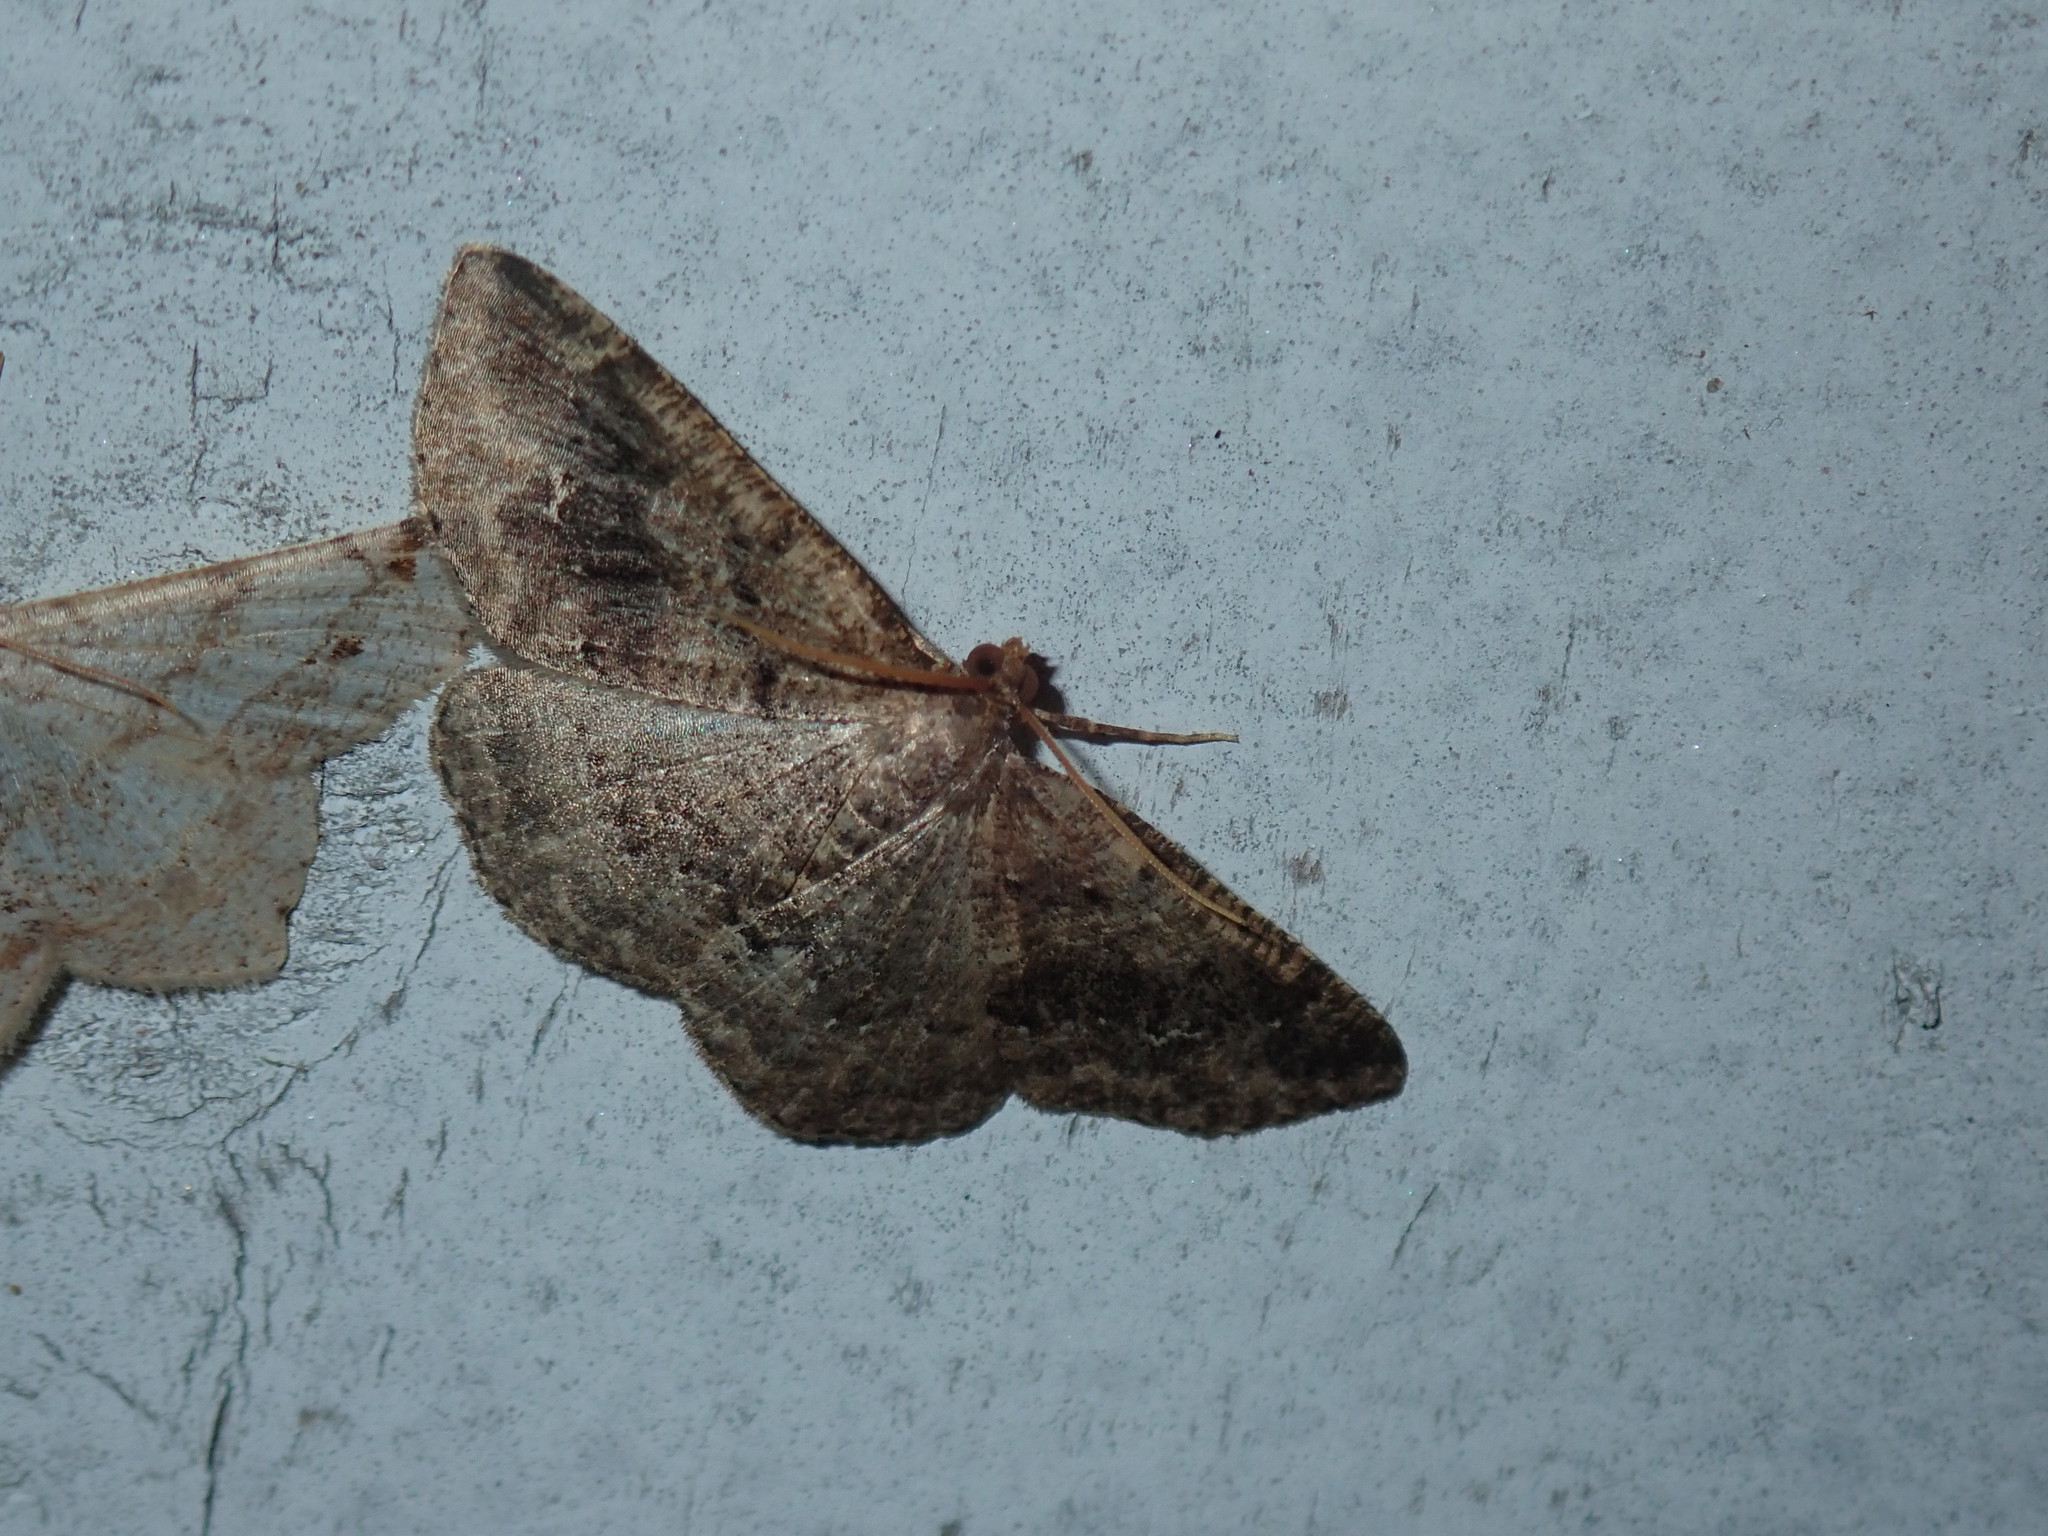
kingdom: Animalia
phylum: Arthropoda
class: Insecta
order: Lepidoptera
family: Geometridae
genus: Homochlodes
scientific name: Homochlodes fritillaria
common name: Pale homochlodes
